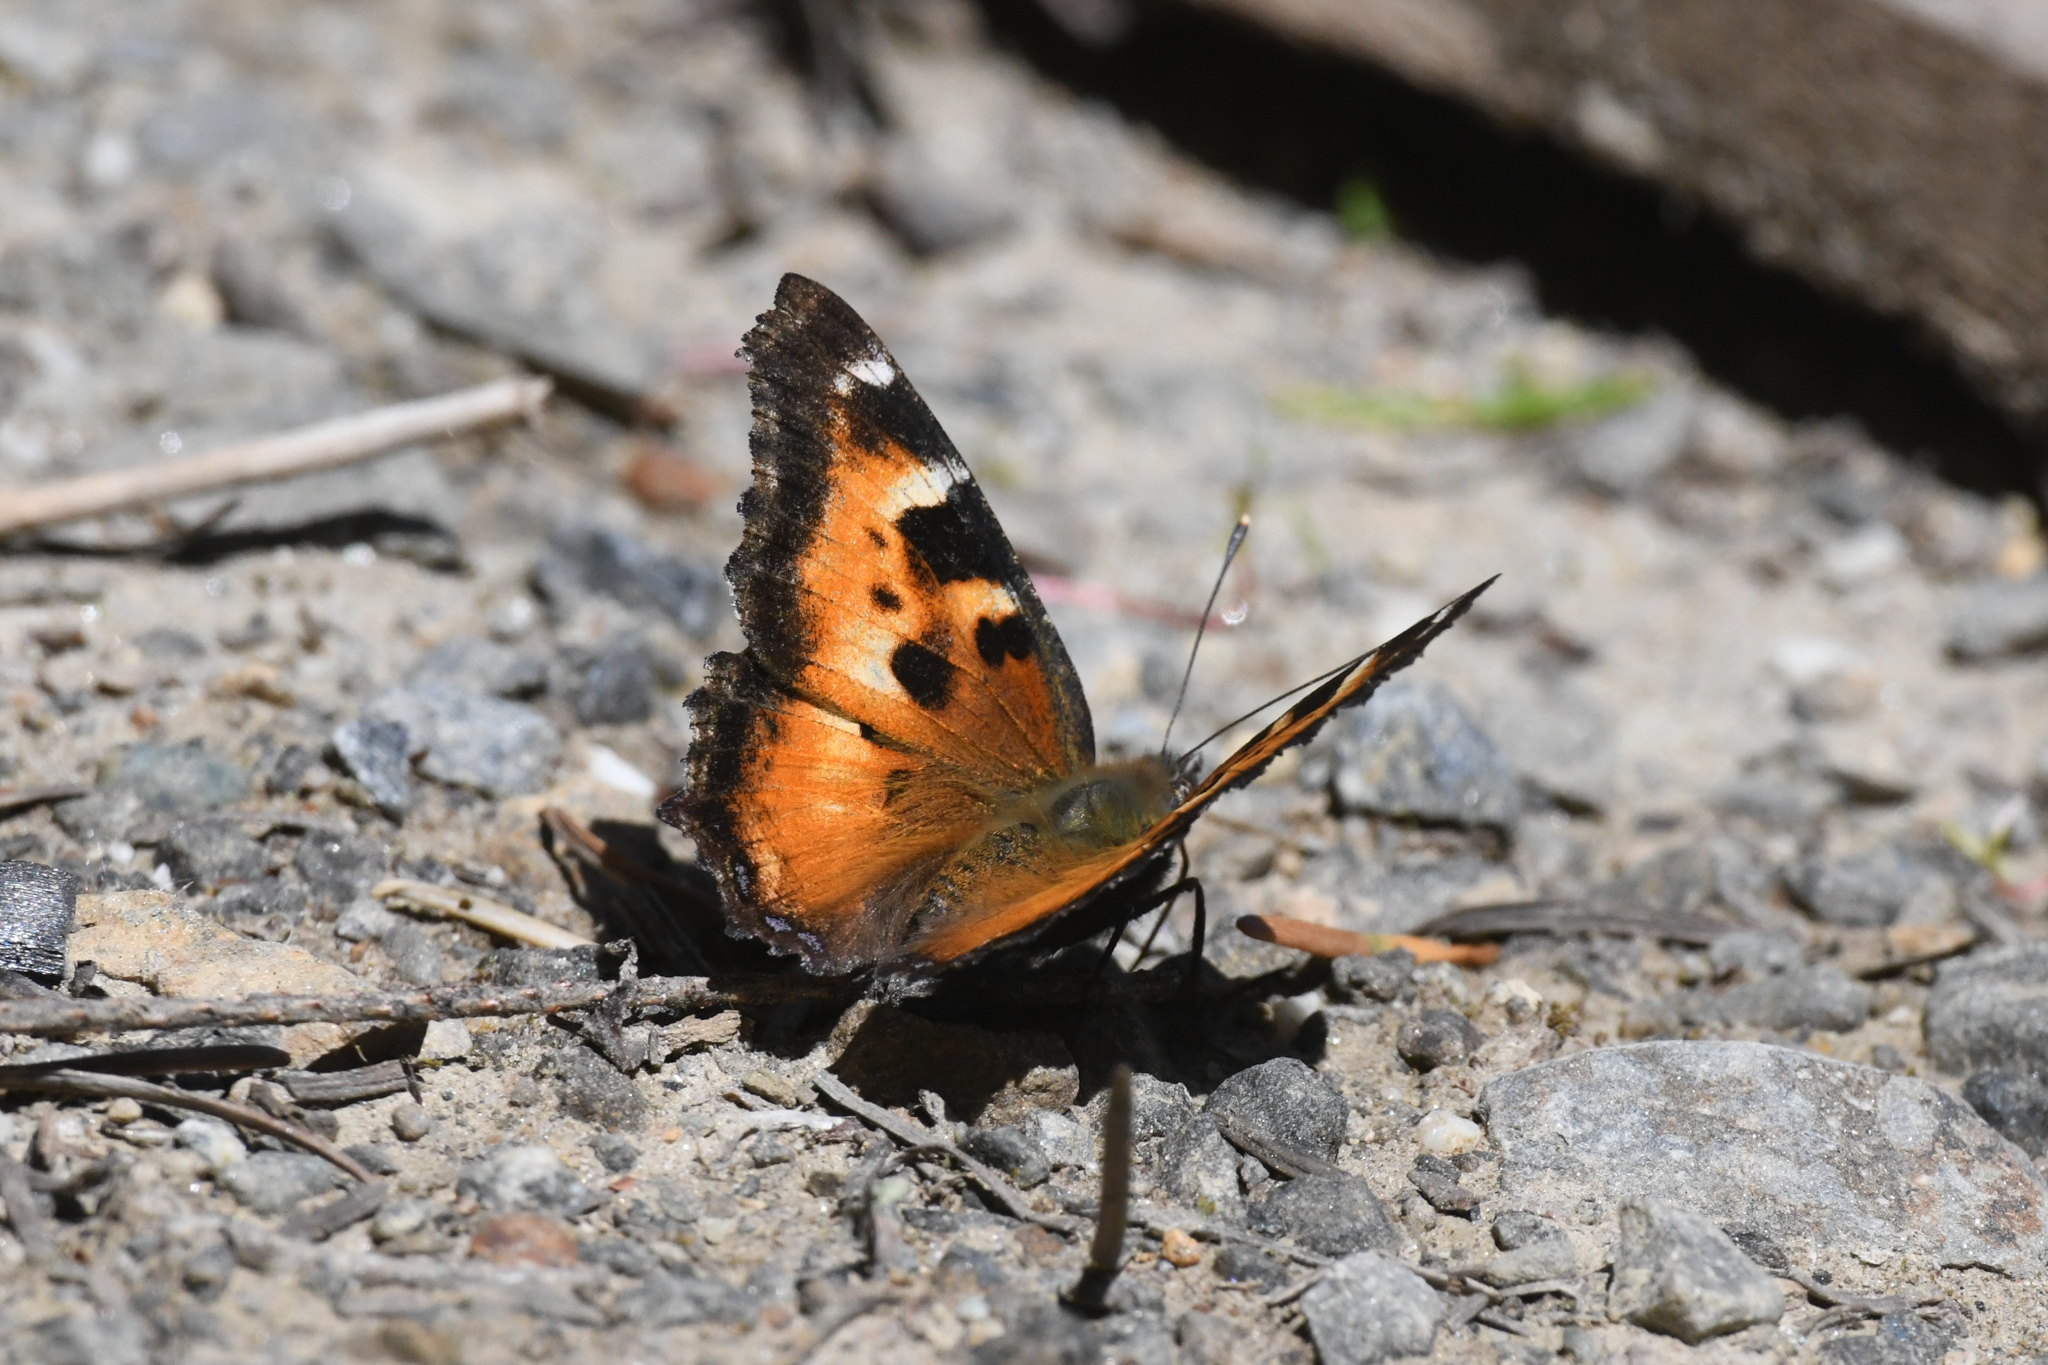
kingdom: Animalia
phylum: Arthropoda
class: Insecta
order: Lepidoptera
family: Nymphalidae
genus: Nymphalis
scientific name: Nymphalis californica
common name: California tortoiseshell
